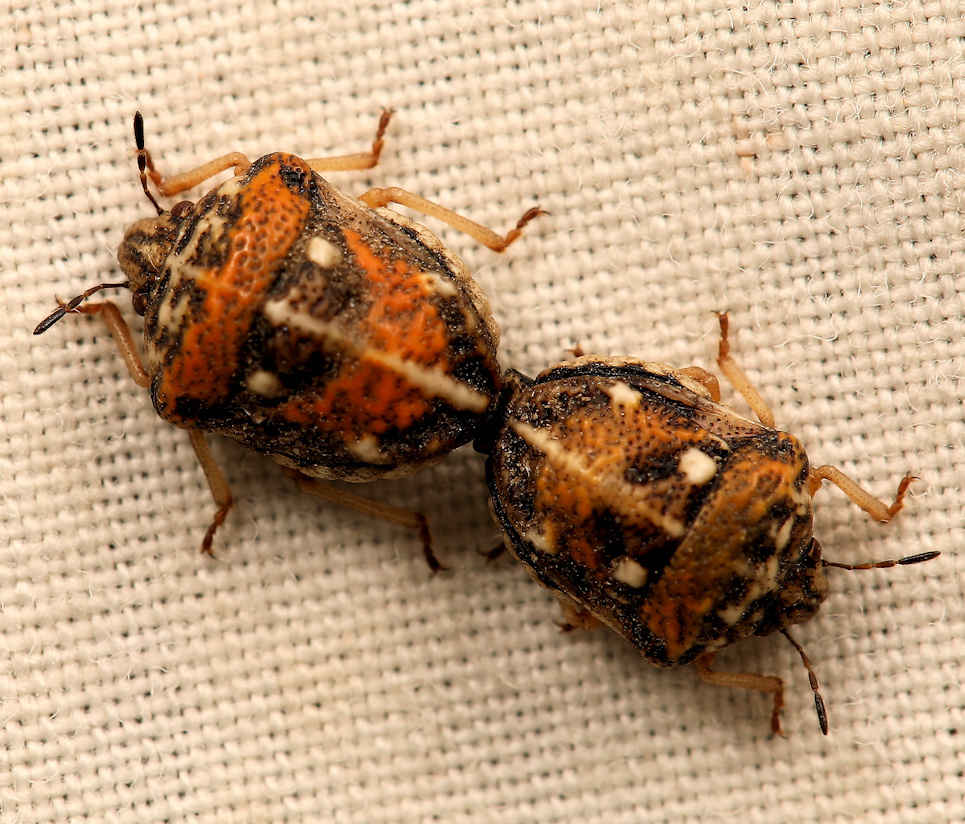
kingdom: Animalia
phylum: Arthropoda
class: Insecta
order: Hemiptera
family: Pentatomidae
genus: Bolbocoris
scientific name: Bolbocoris rufus
